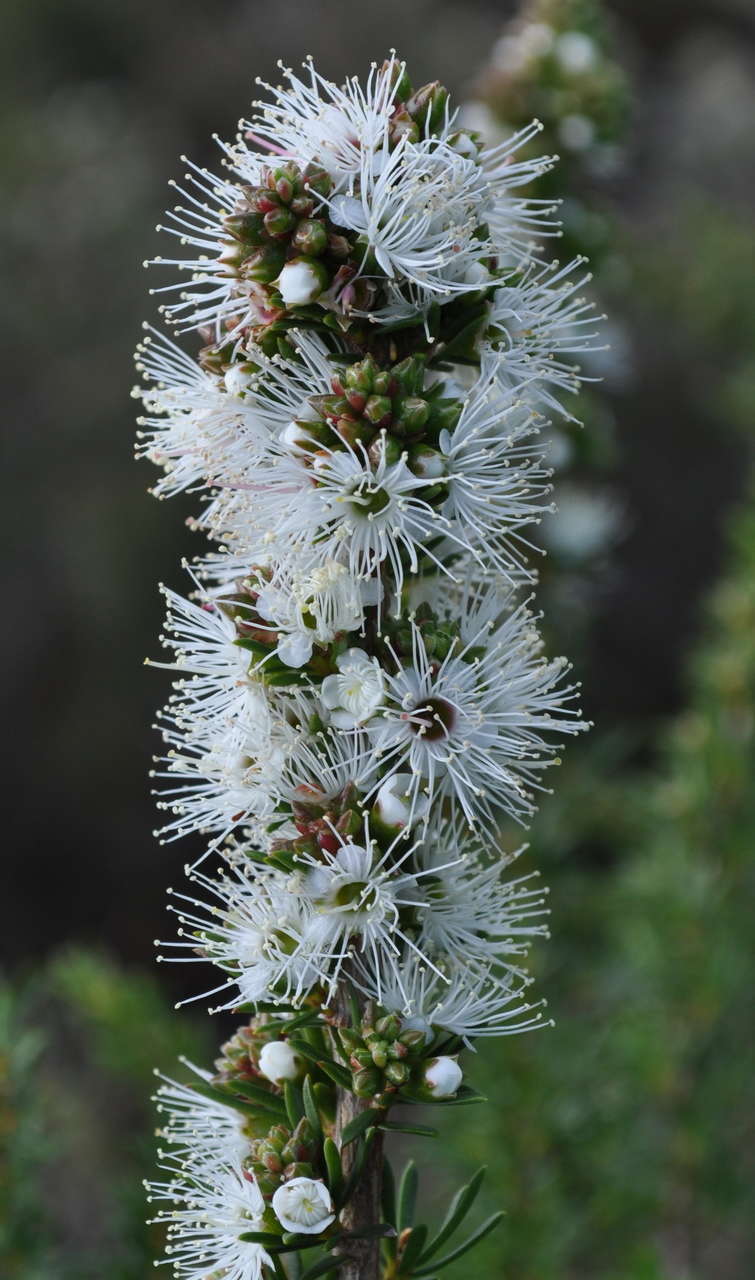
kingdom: Plantae
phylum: Tracheophyta
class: Magnoliopsida
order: Myrtales
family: Myrtaceae
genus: Kunzea
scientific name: Kunzea ambigua
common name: Tickbush
